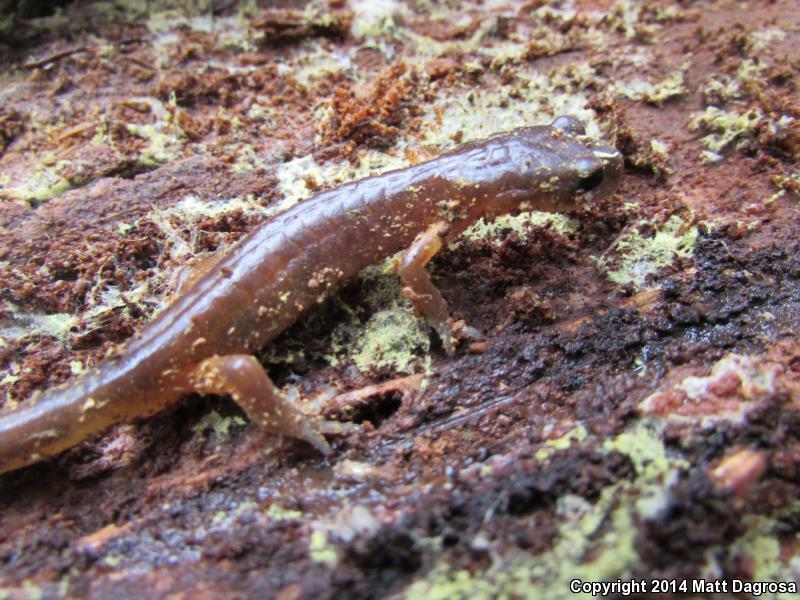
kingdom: Animalia
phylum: Chordata
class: Amphibia
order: Caudata
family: Plethodontidae
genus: Ensatina
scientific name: Ensatina eschscholtzii
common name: Ensatina
